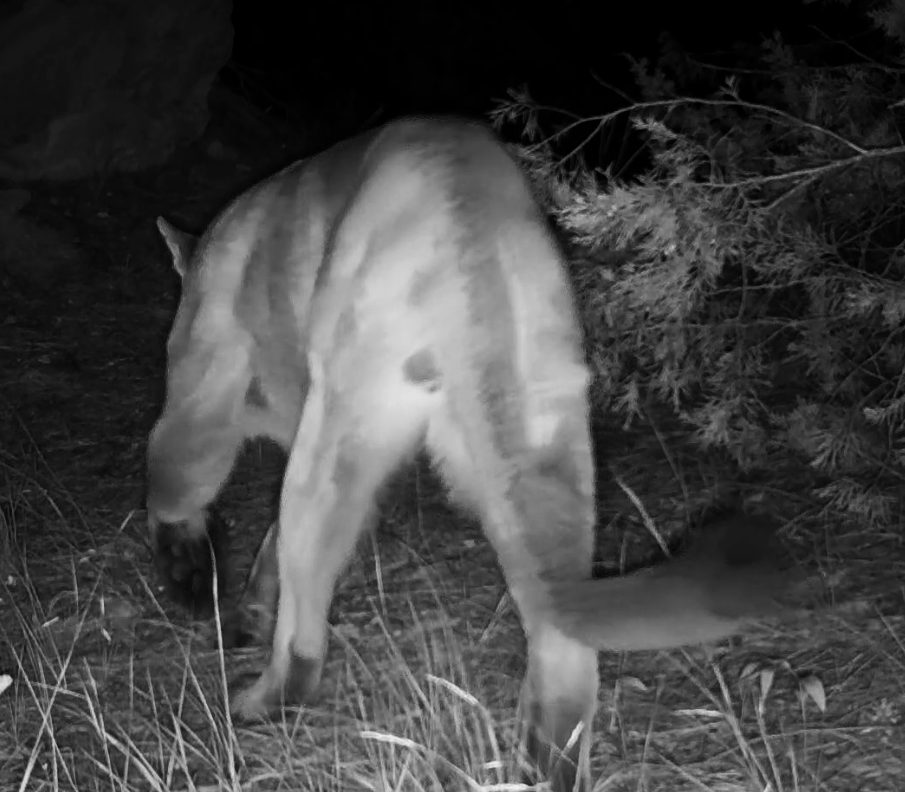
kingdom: Animalia
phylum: Chordata
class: Mammalia
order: Carnivora
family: Felidae
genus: Puma
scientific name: Puma concolor
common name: Puma
